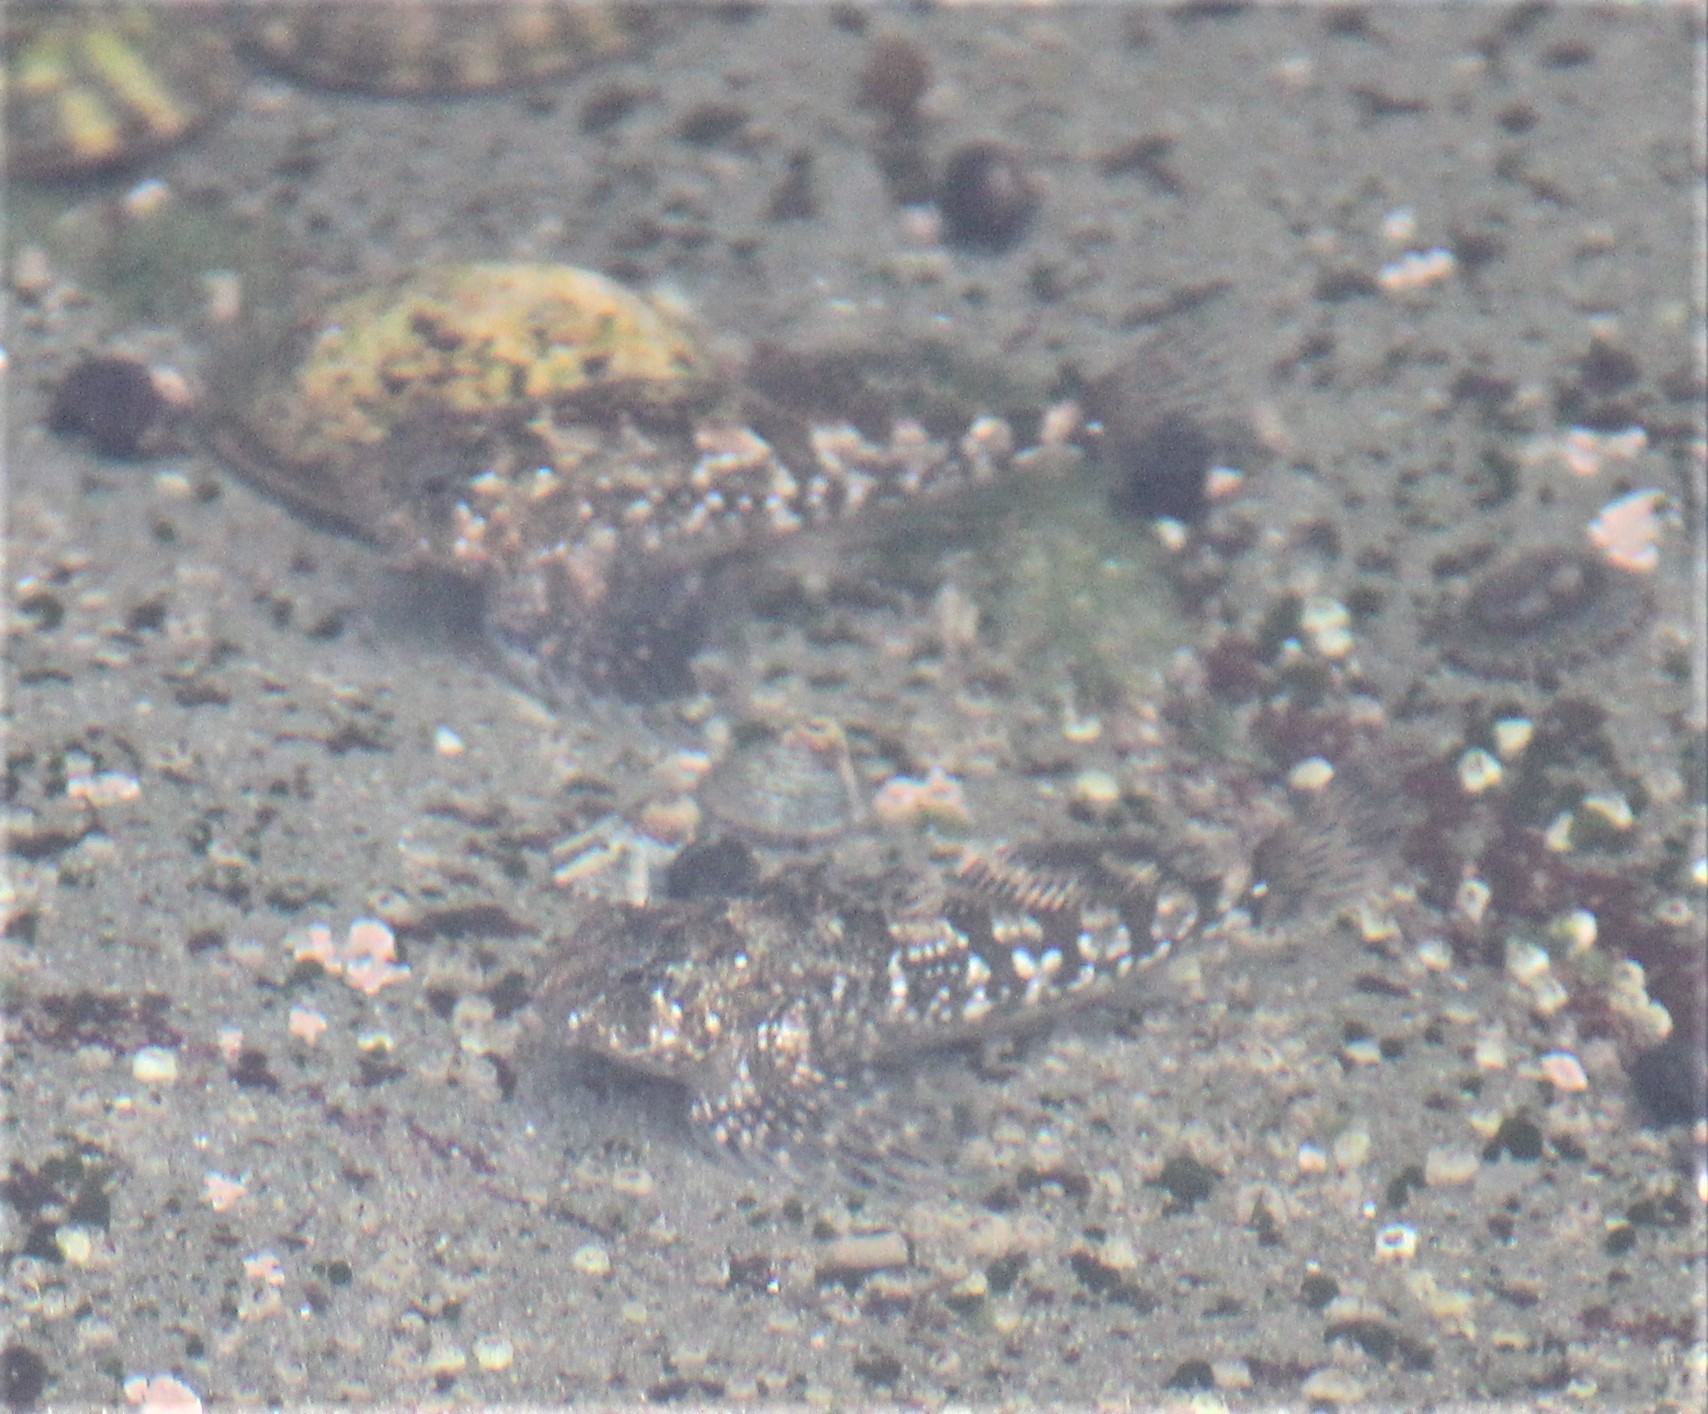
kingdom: Animalia
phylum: Chordata
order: Scorpaeniformes
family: Cottidae
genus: Clinocottus
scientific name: Clinocottus globiceps
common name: Mosshead sculpin
